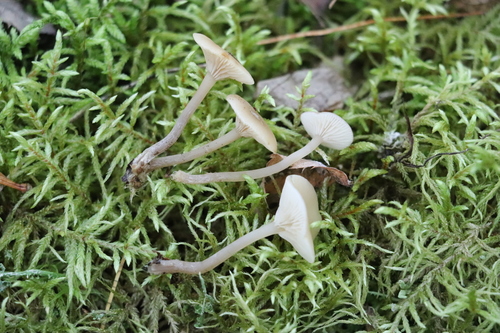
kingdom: Fungi
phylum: Basidiomycota
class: Agaricomycetes
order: Agaricales
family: Tricholomataceae
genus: Clitocybe
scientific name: Clitocybe
